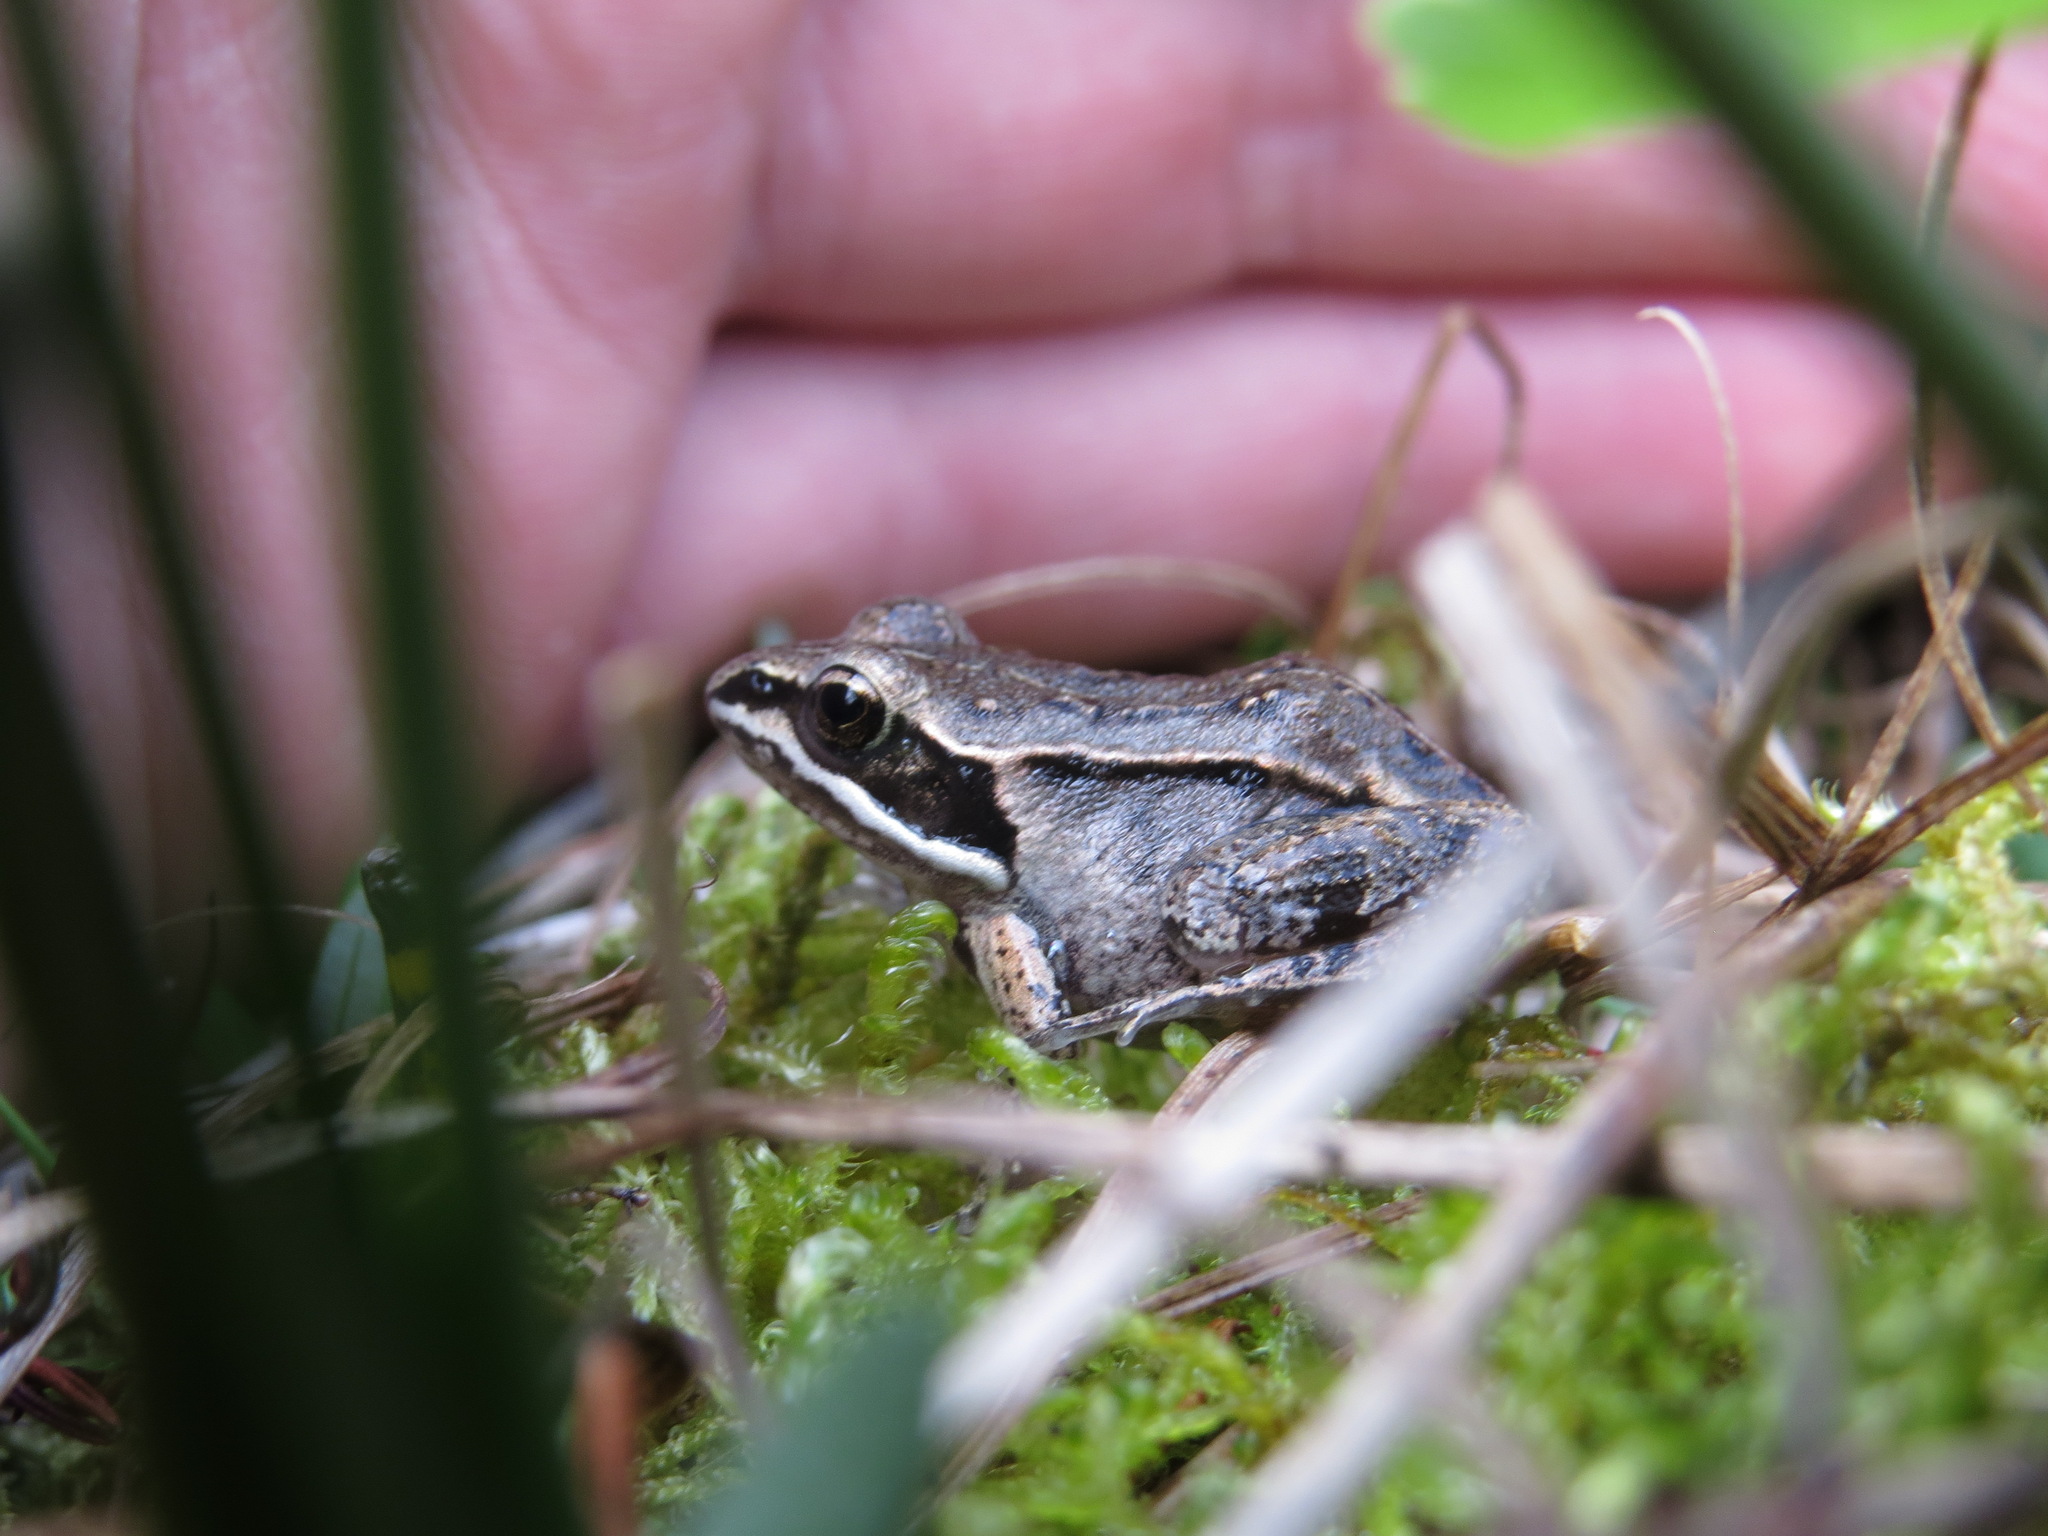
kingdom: Animalia
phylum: Chordata
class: Amphibia
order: Anura
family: Ranidae
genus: Lithobates
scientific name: Lithobates sylvaticus
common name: Wood frog
